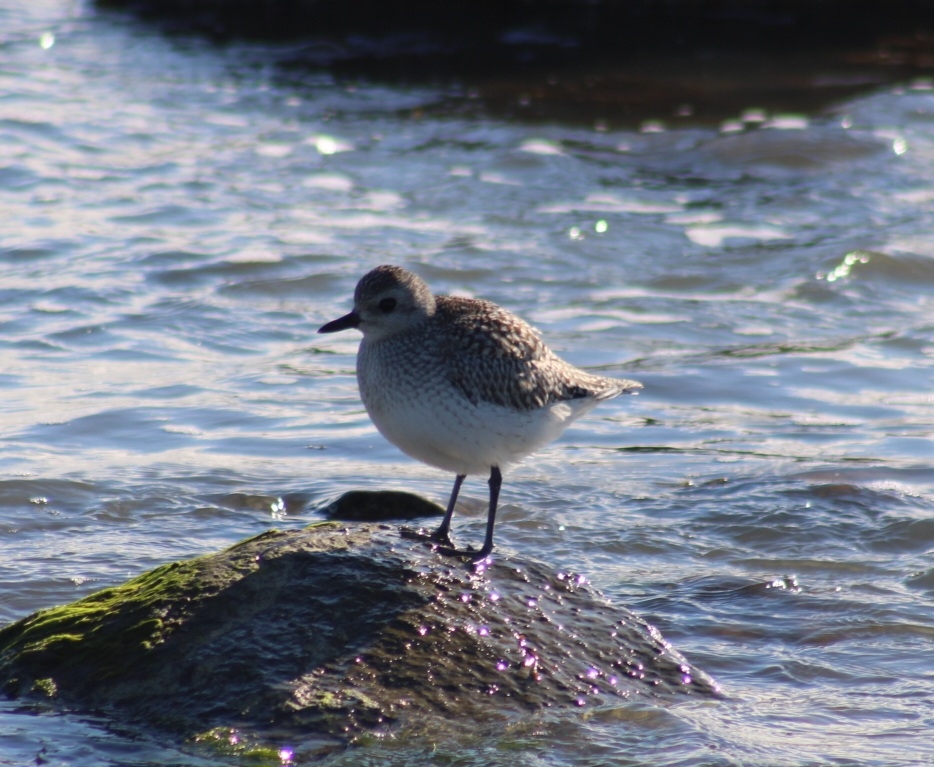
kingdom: Animalia
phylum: Chordata
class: Aves
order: Charadriiformes
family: Charadriidae
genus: Pluvialis
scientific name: Pluvialis squatarola
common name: Grey plover
